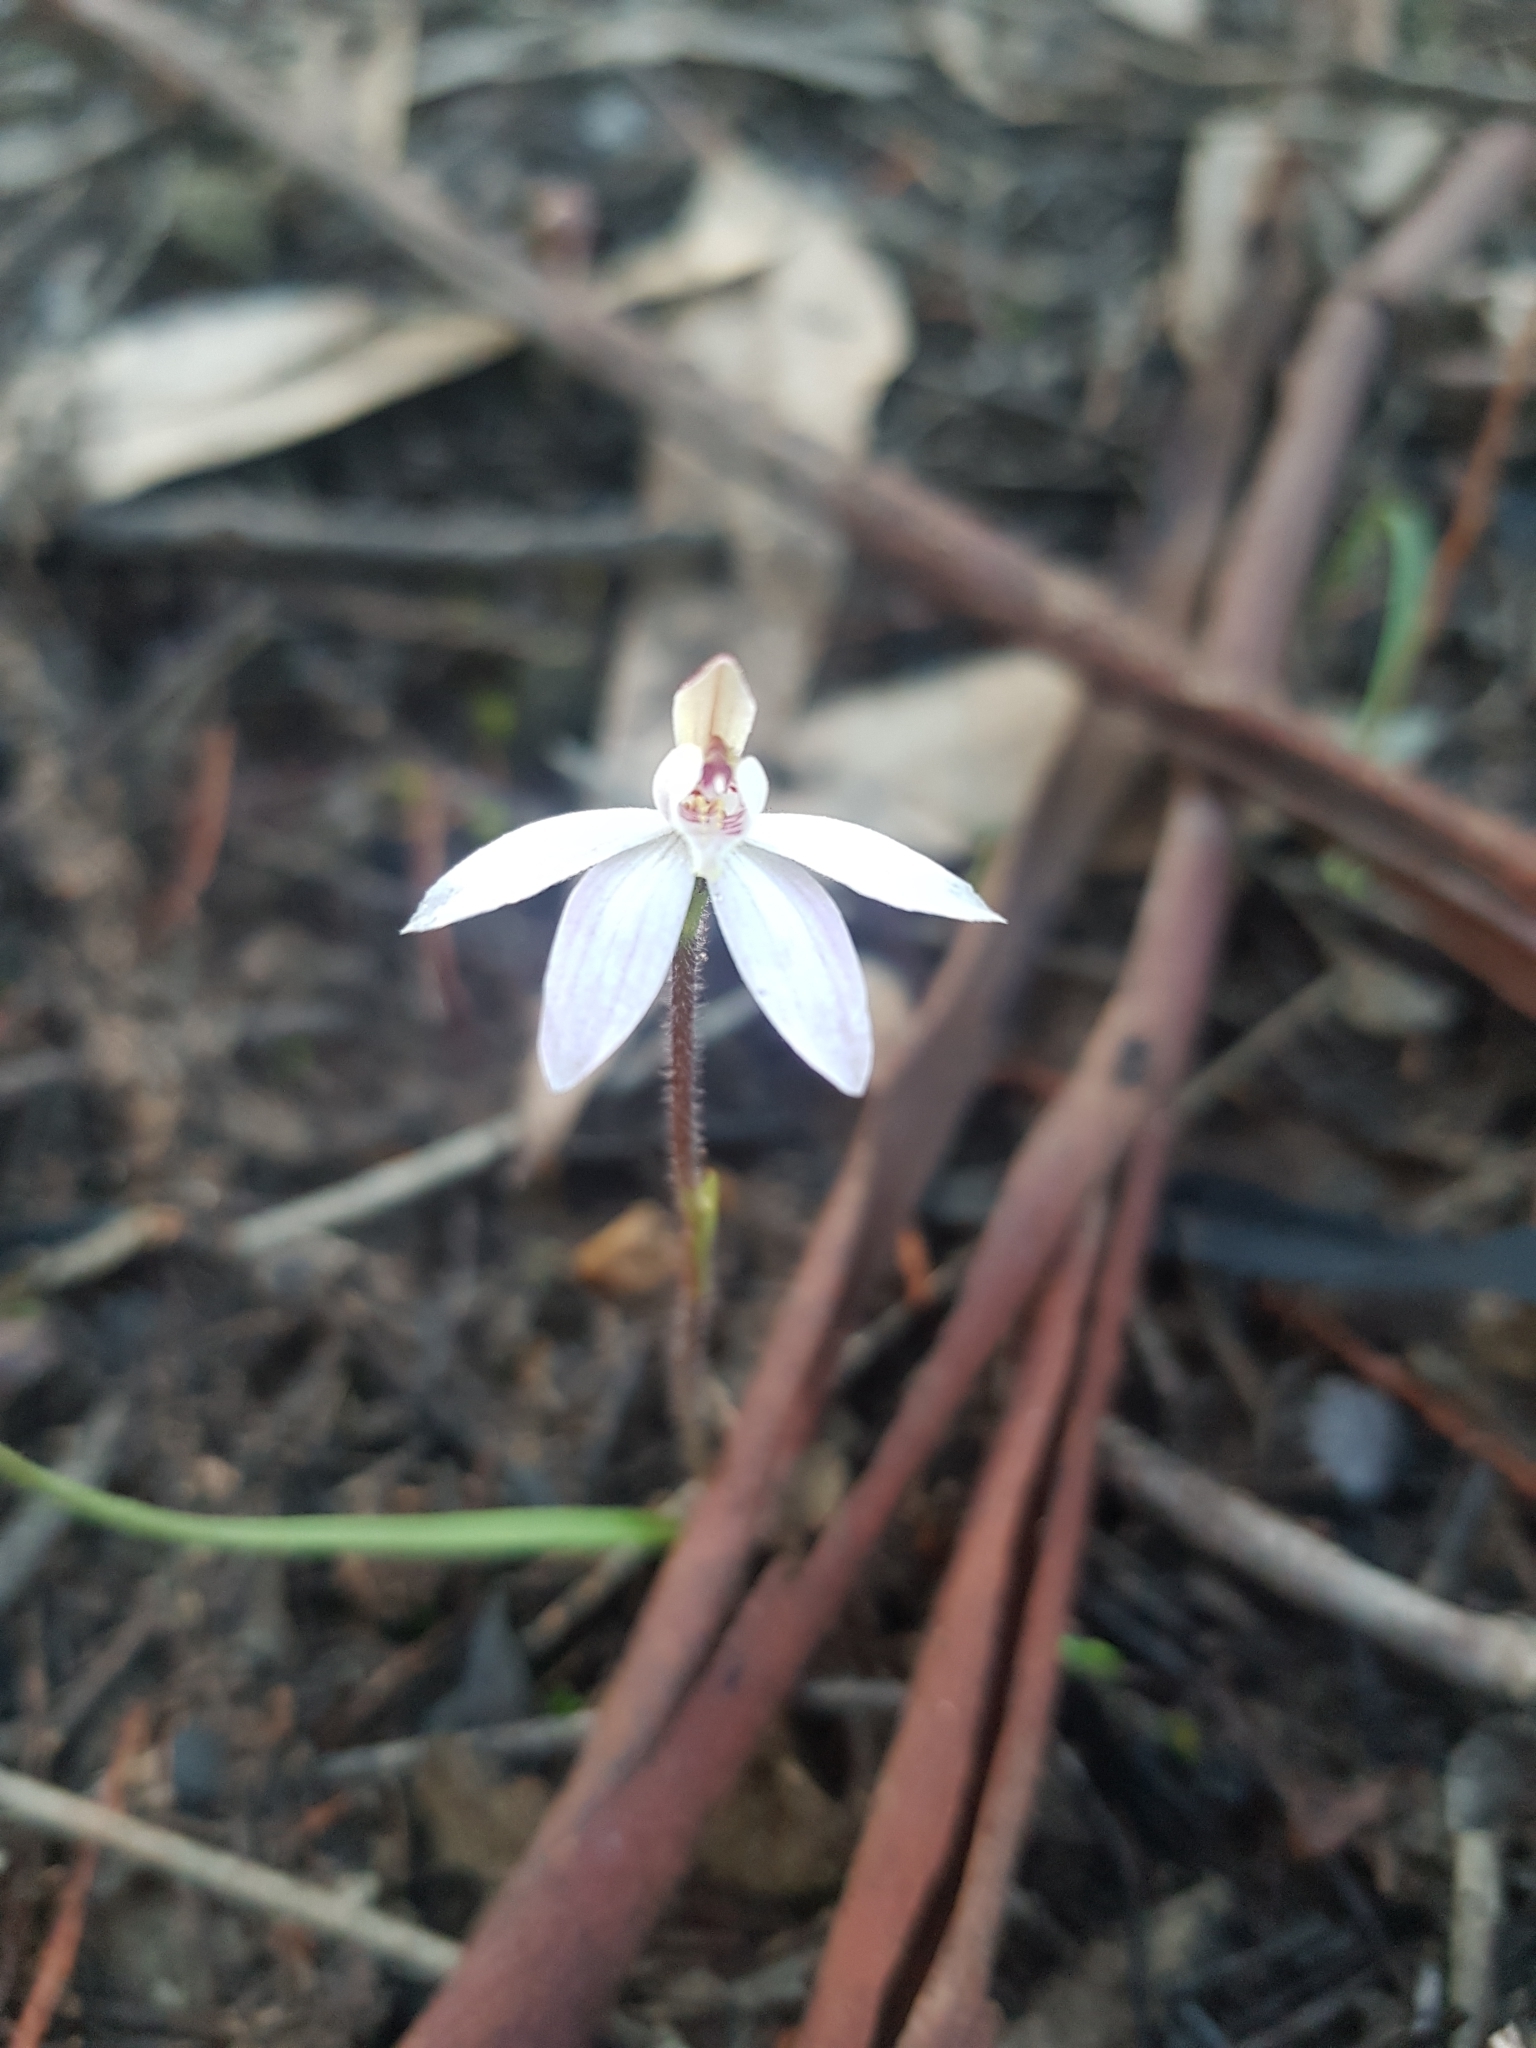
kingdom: Plantae
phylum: Tracheophyta
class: Liliopsida
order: Asparagales
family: Orchidaceae
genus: Caladenia
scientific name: Caladenia fuscata
